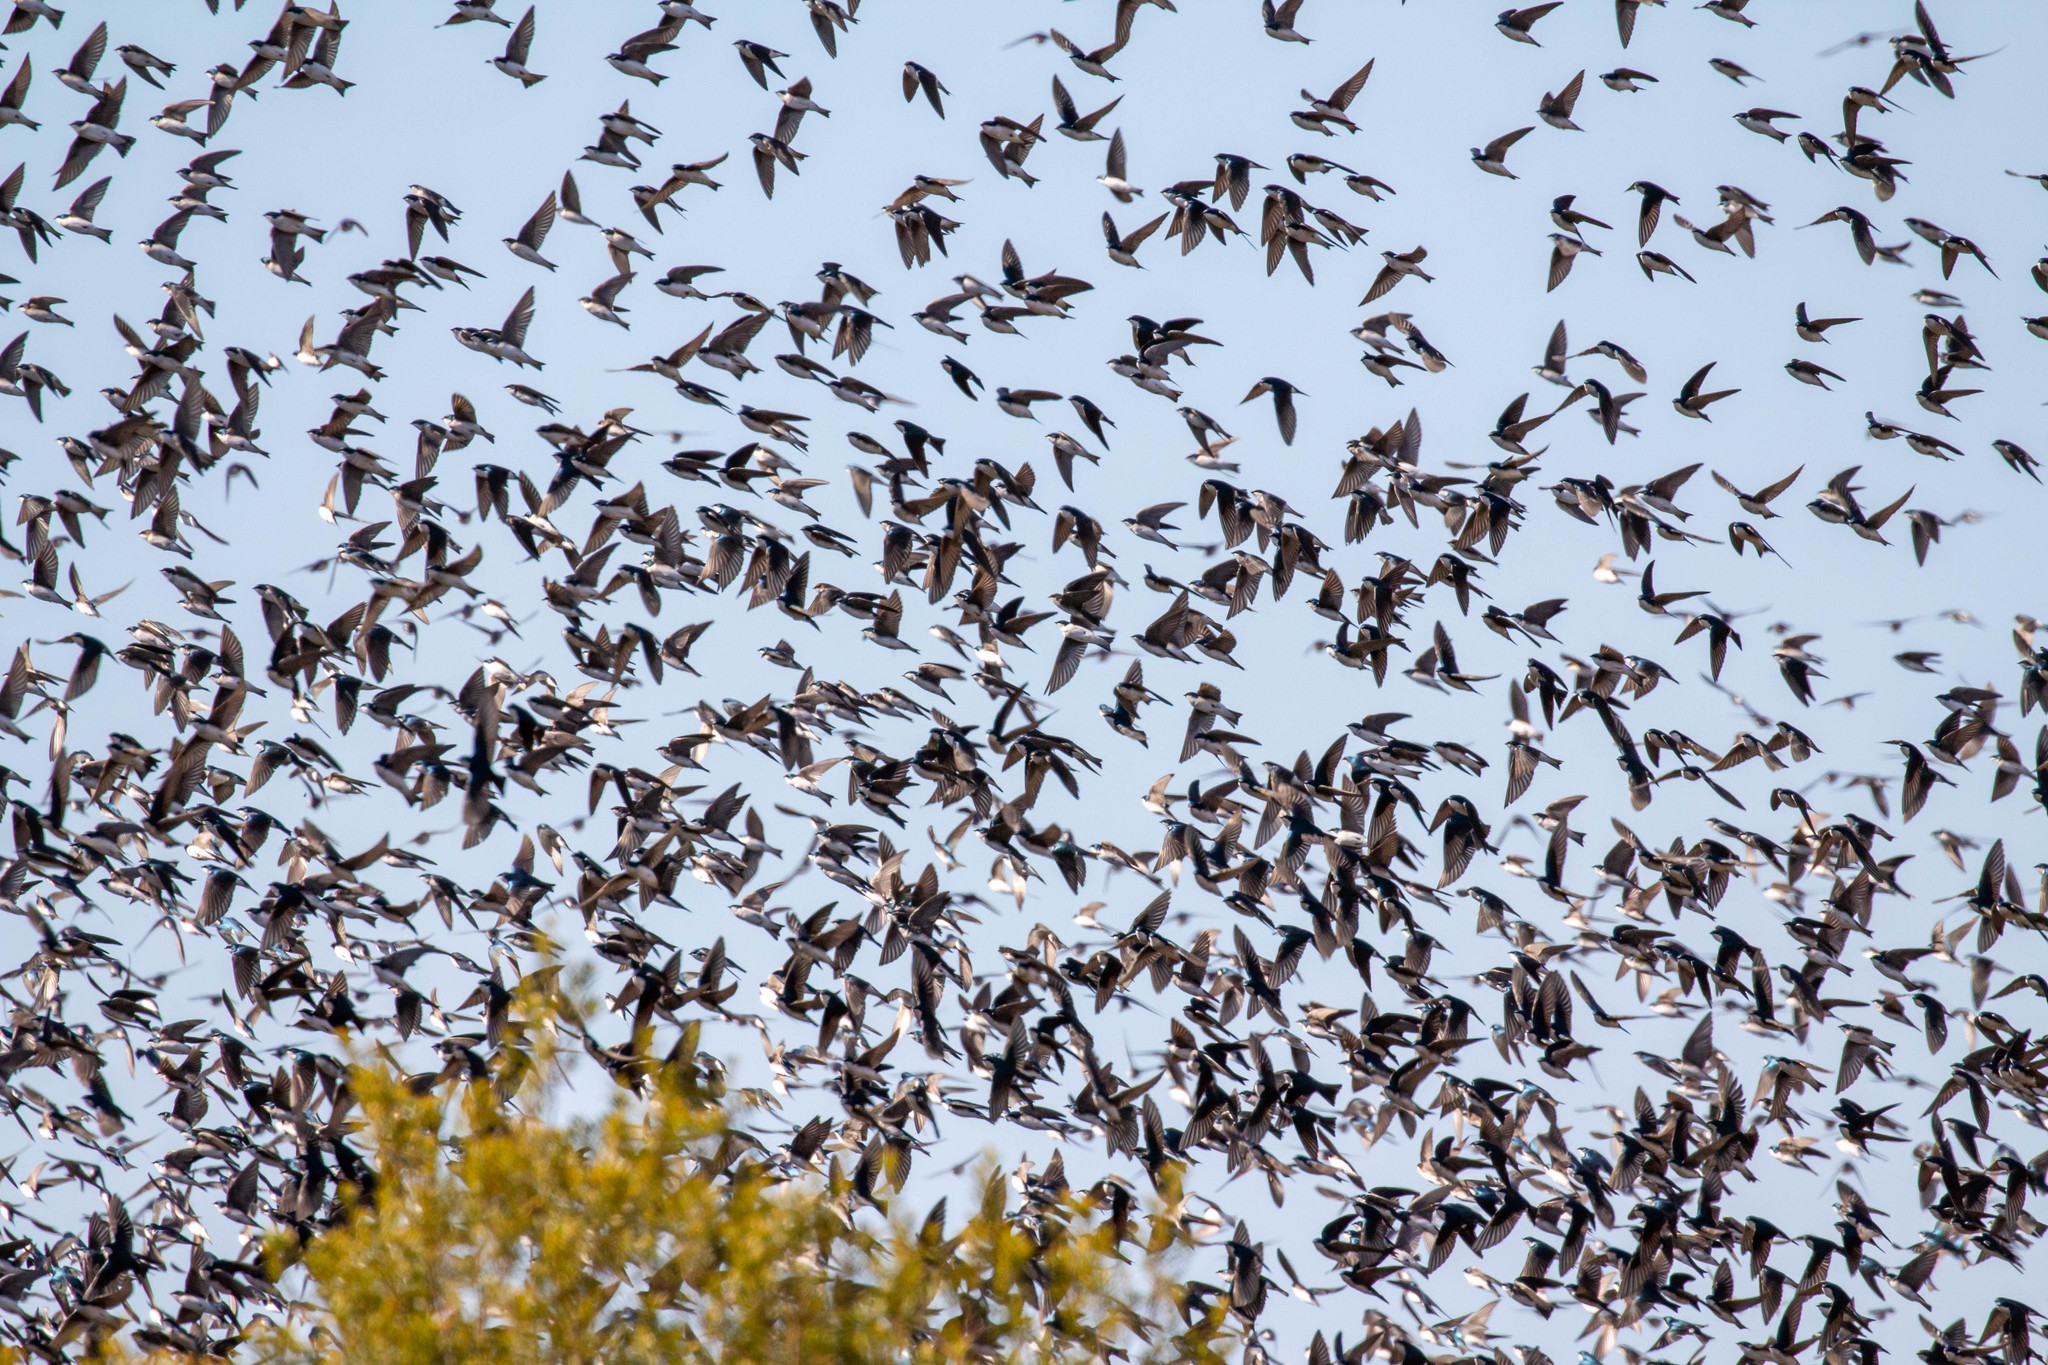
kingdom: Animalia
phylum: Chordata
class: Aves
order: Passeriformes
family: Hirundinidae
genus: Tachycineta
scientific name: Tachycineta bicolor
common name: Tree swallow
